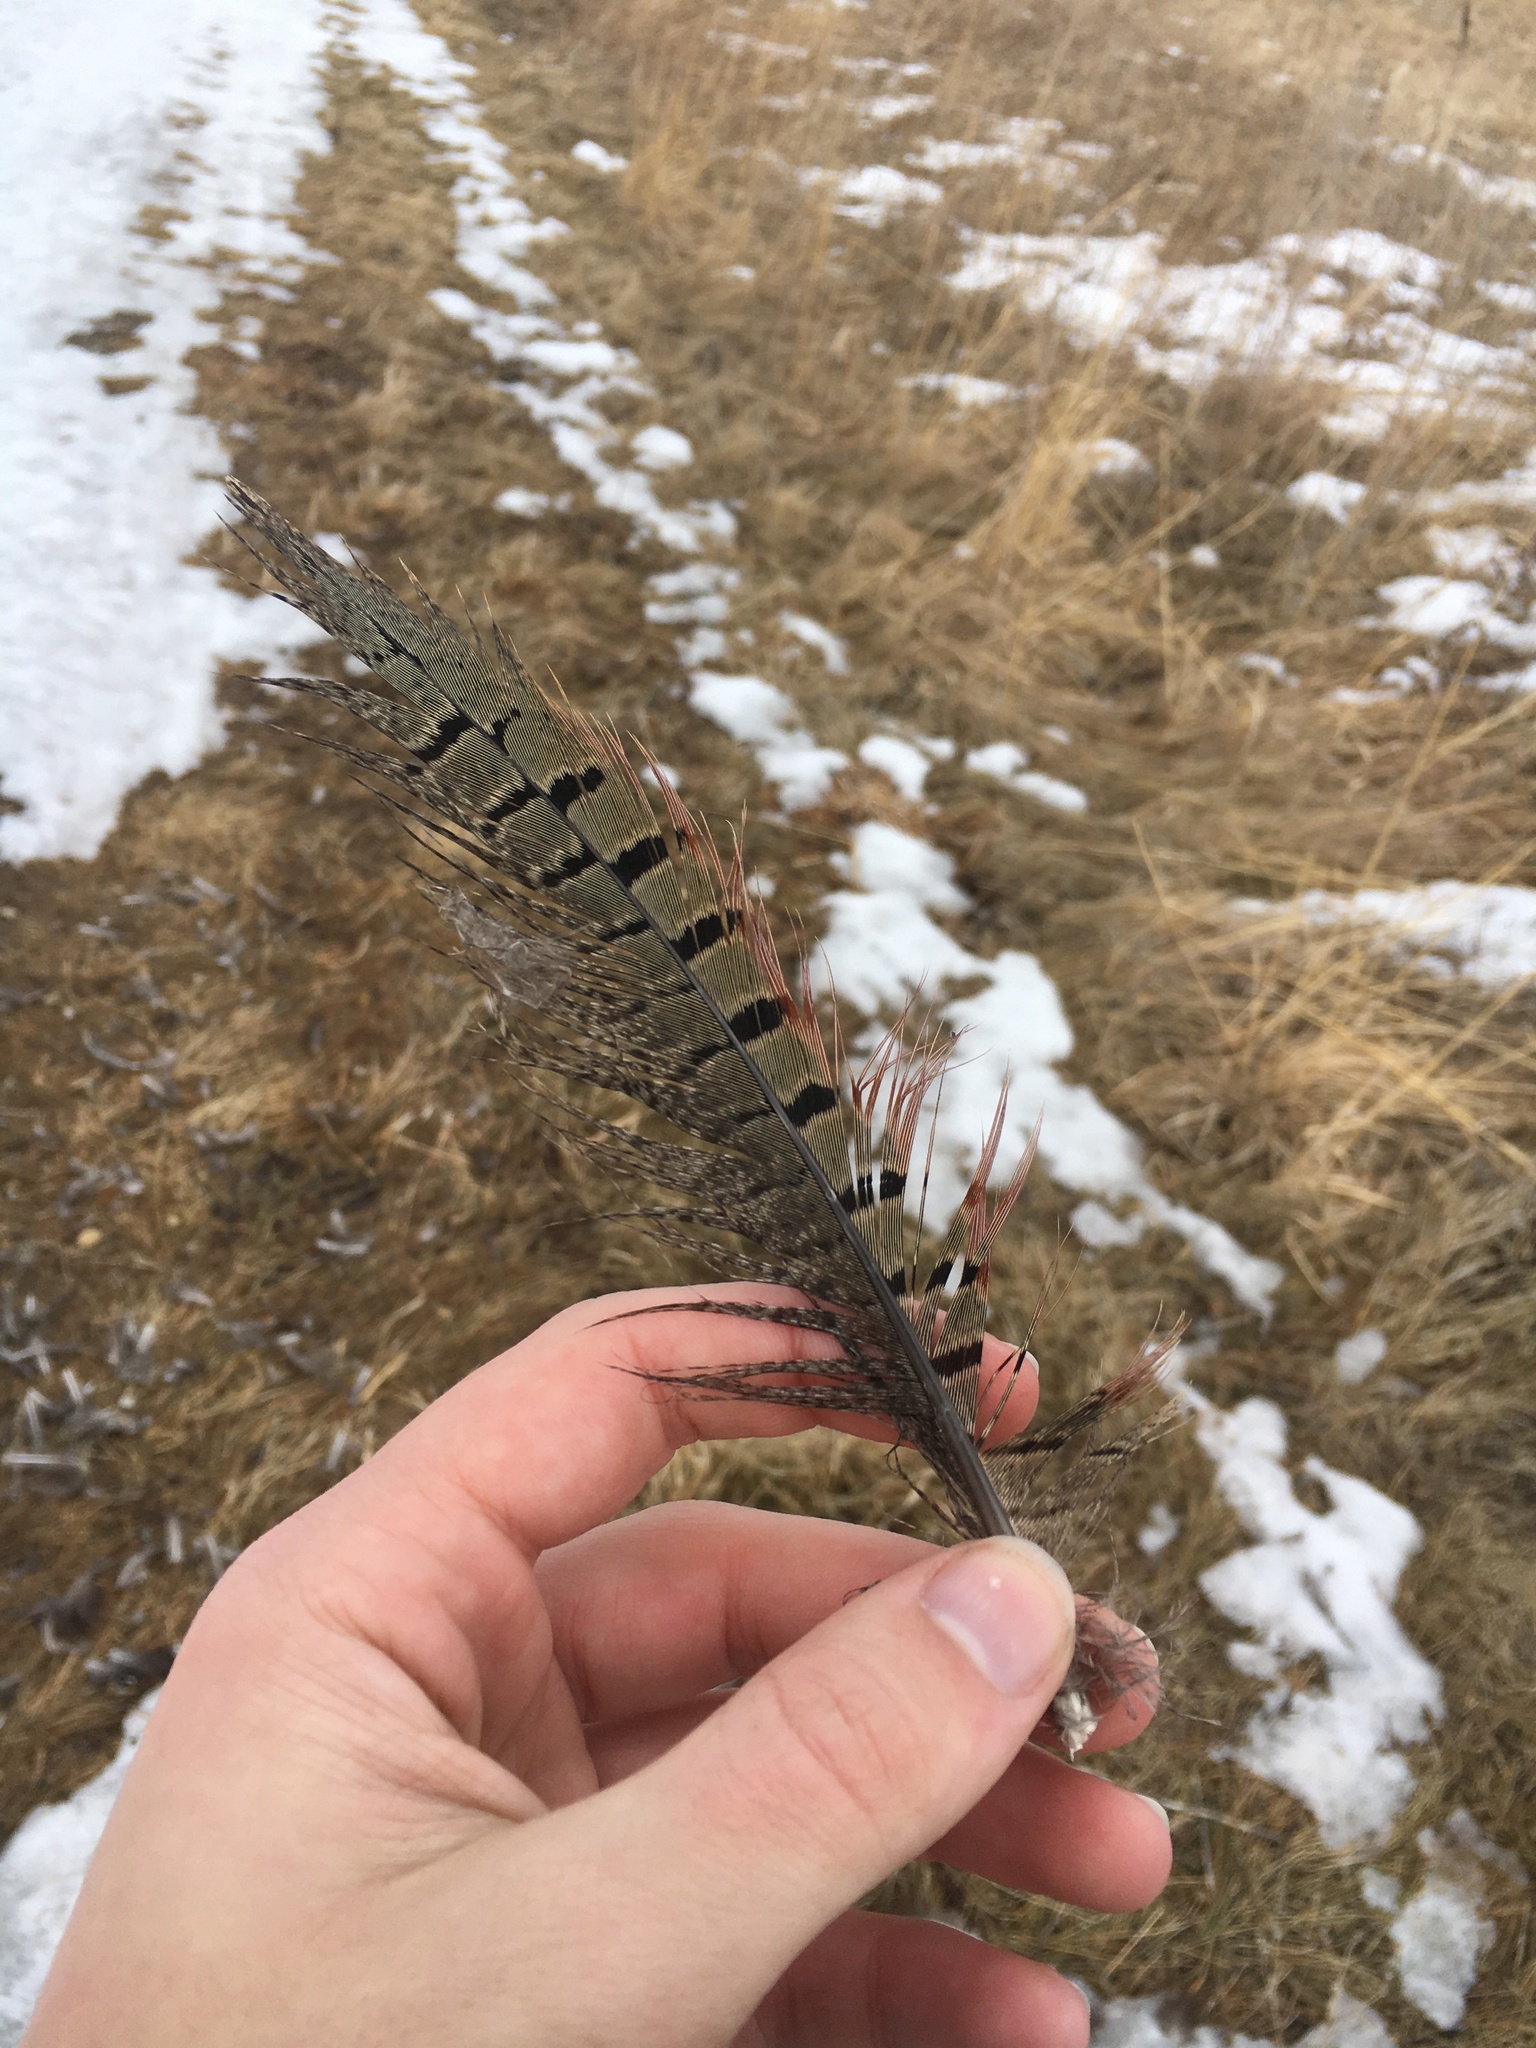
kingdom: Animalia
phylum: Chordata
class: Aves
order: Galliformes
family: Phasianidae
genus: Phasianus
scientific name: Phasianus colchicus
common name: Common pheasant
